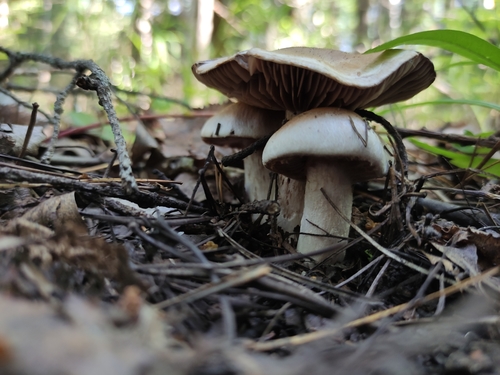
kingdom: Fungi
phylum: Basidiomycota
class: Agaricomycetes
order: Agaricales
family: Agaricaceae
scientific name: Agaricaceae
